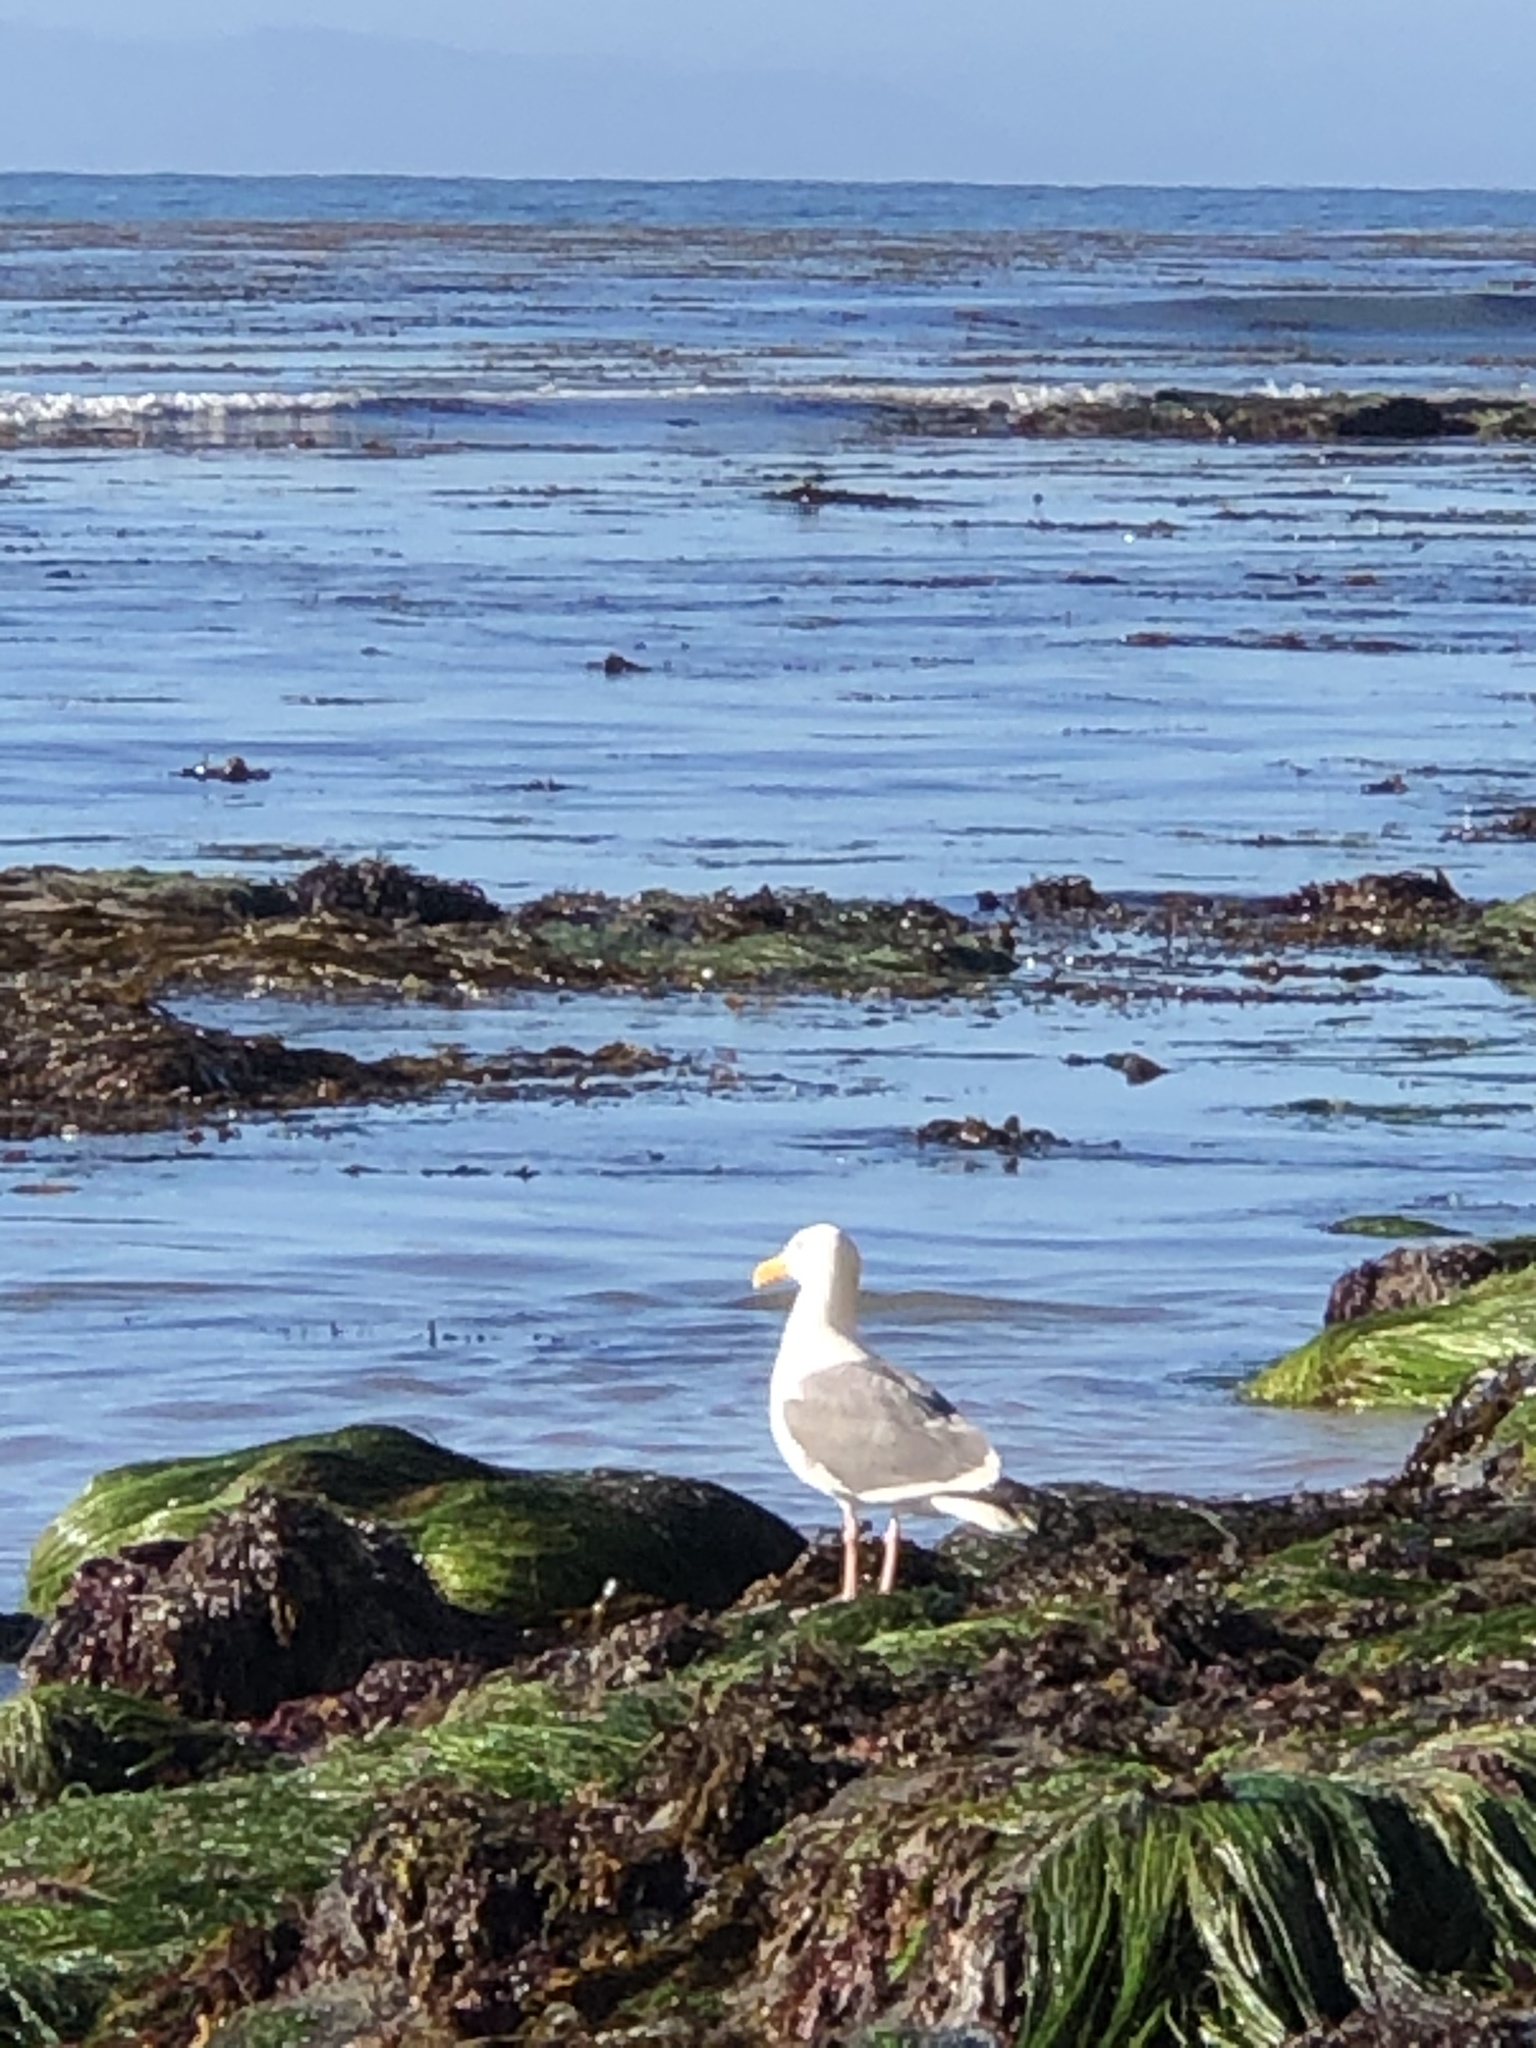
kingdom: Animalia
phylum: Chordata
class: Aves
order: Charadriiformes
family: Laridae
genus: Larus
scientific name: Larus occidentalis
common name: Western gull
